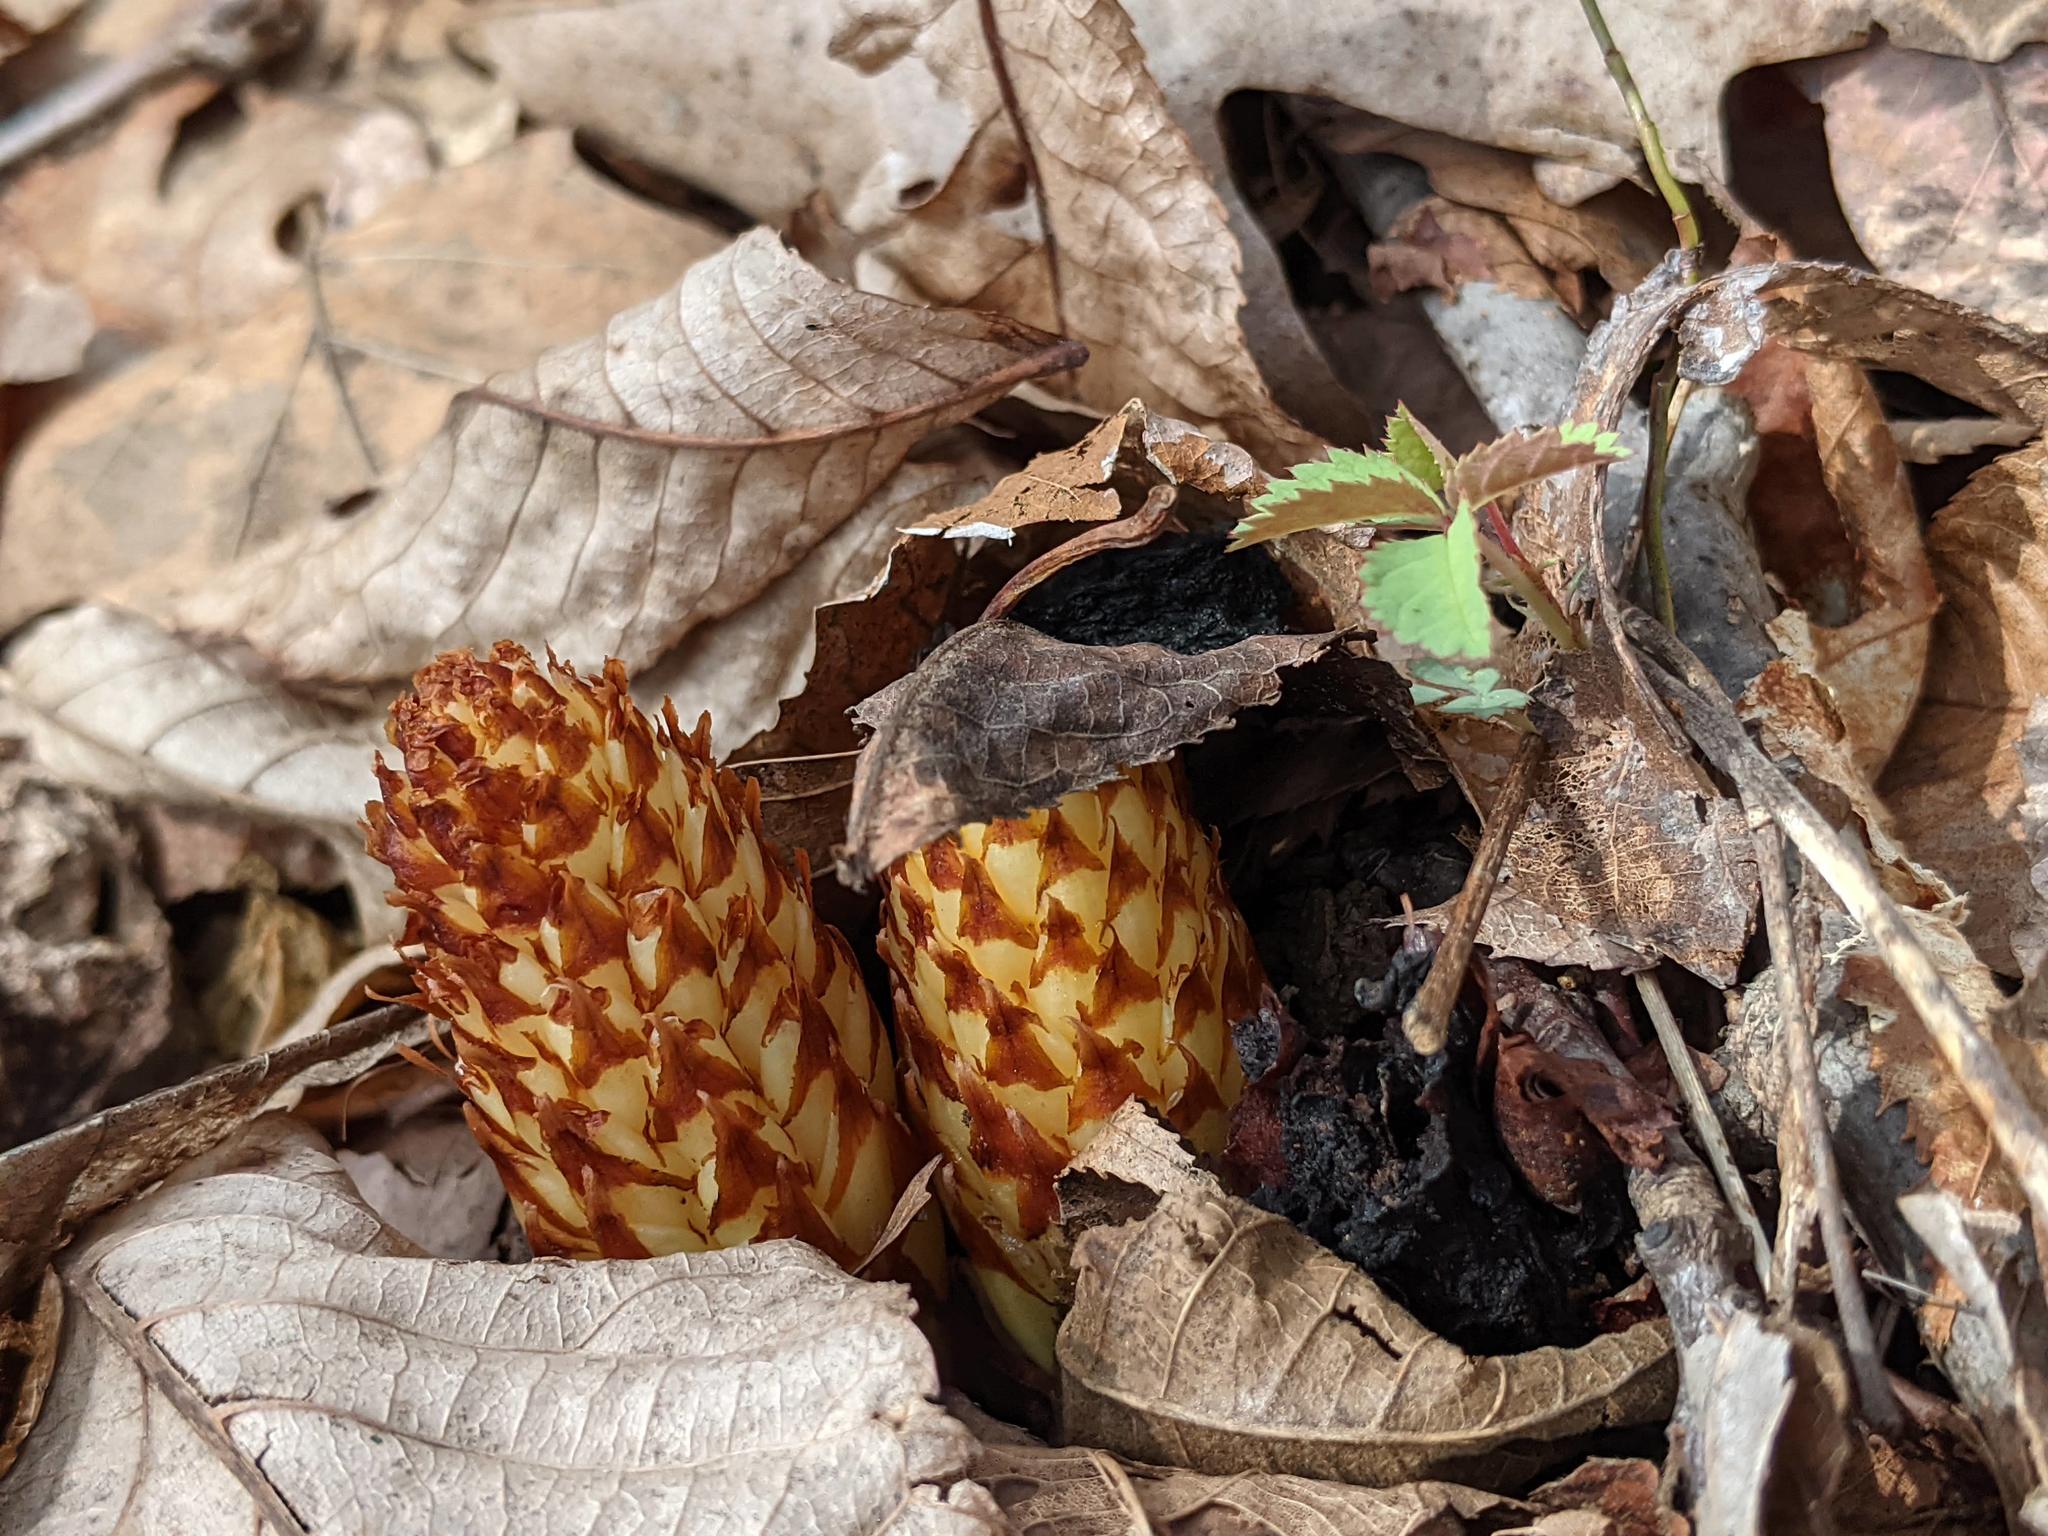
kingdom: Plantae
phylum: Tracheophyta
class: Magnoliopsida
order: Lamiales
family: Orobanchaceae
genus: Conopholis
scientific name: Conopholis americana
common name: American cancer-root
